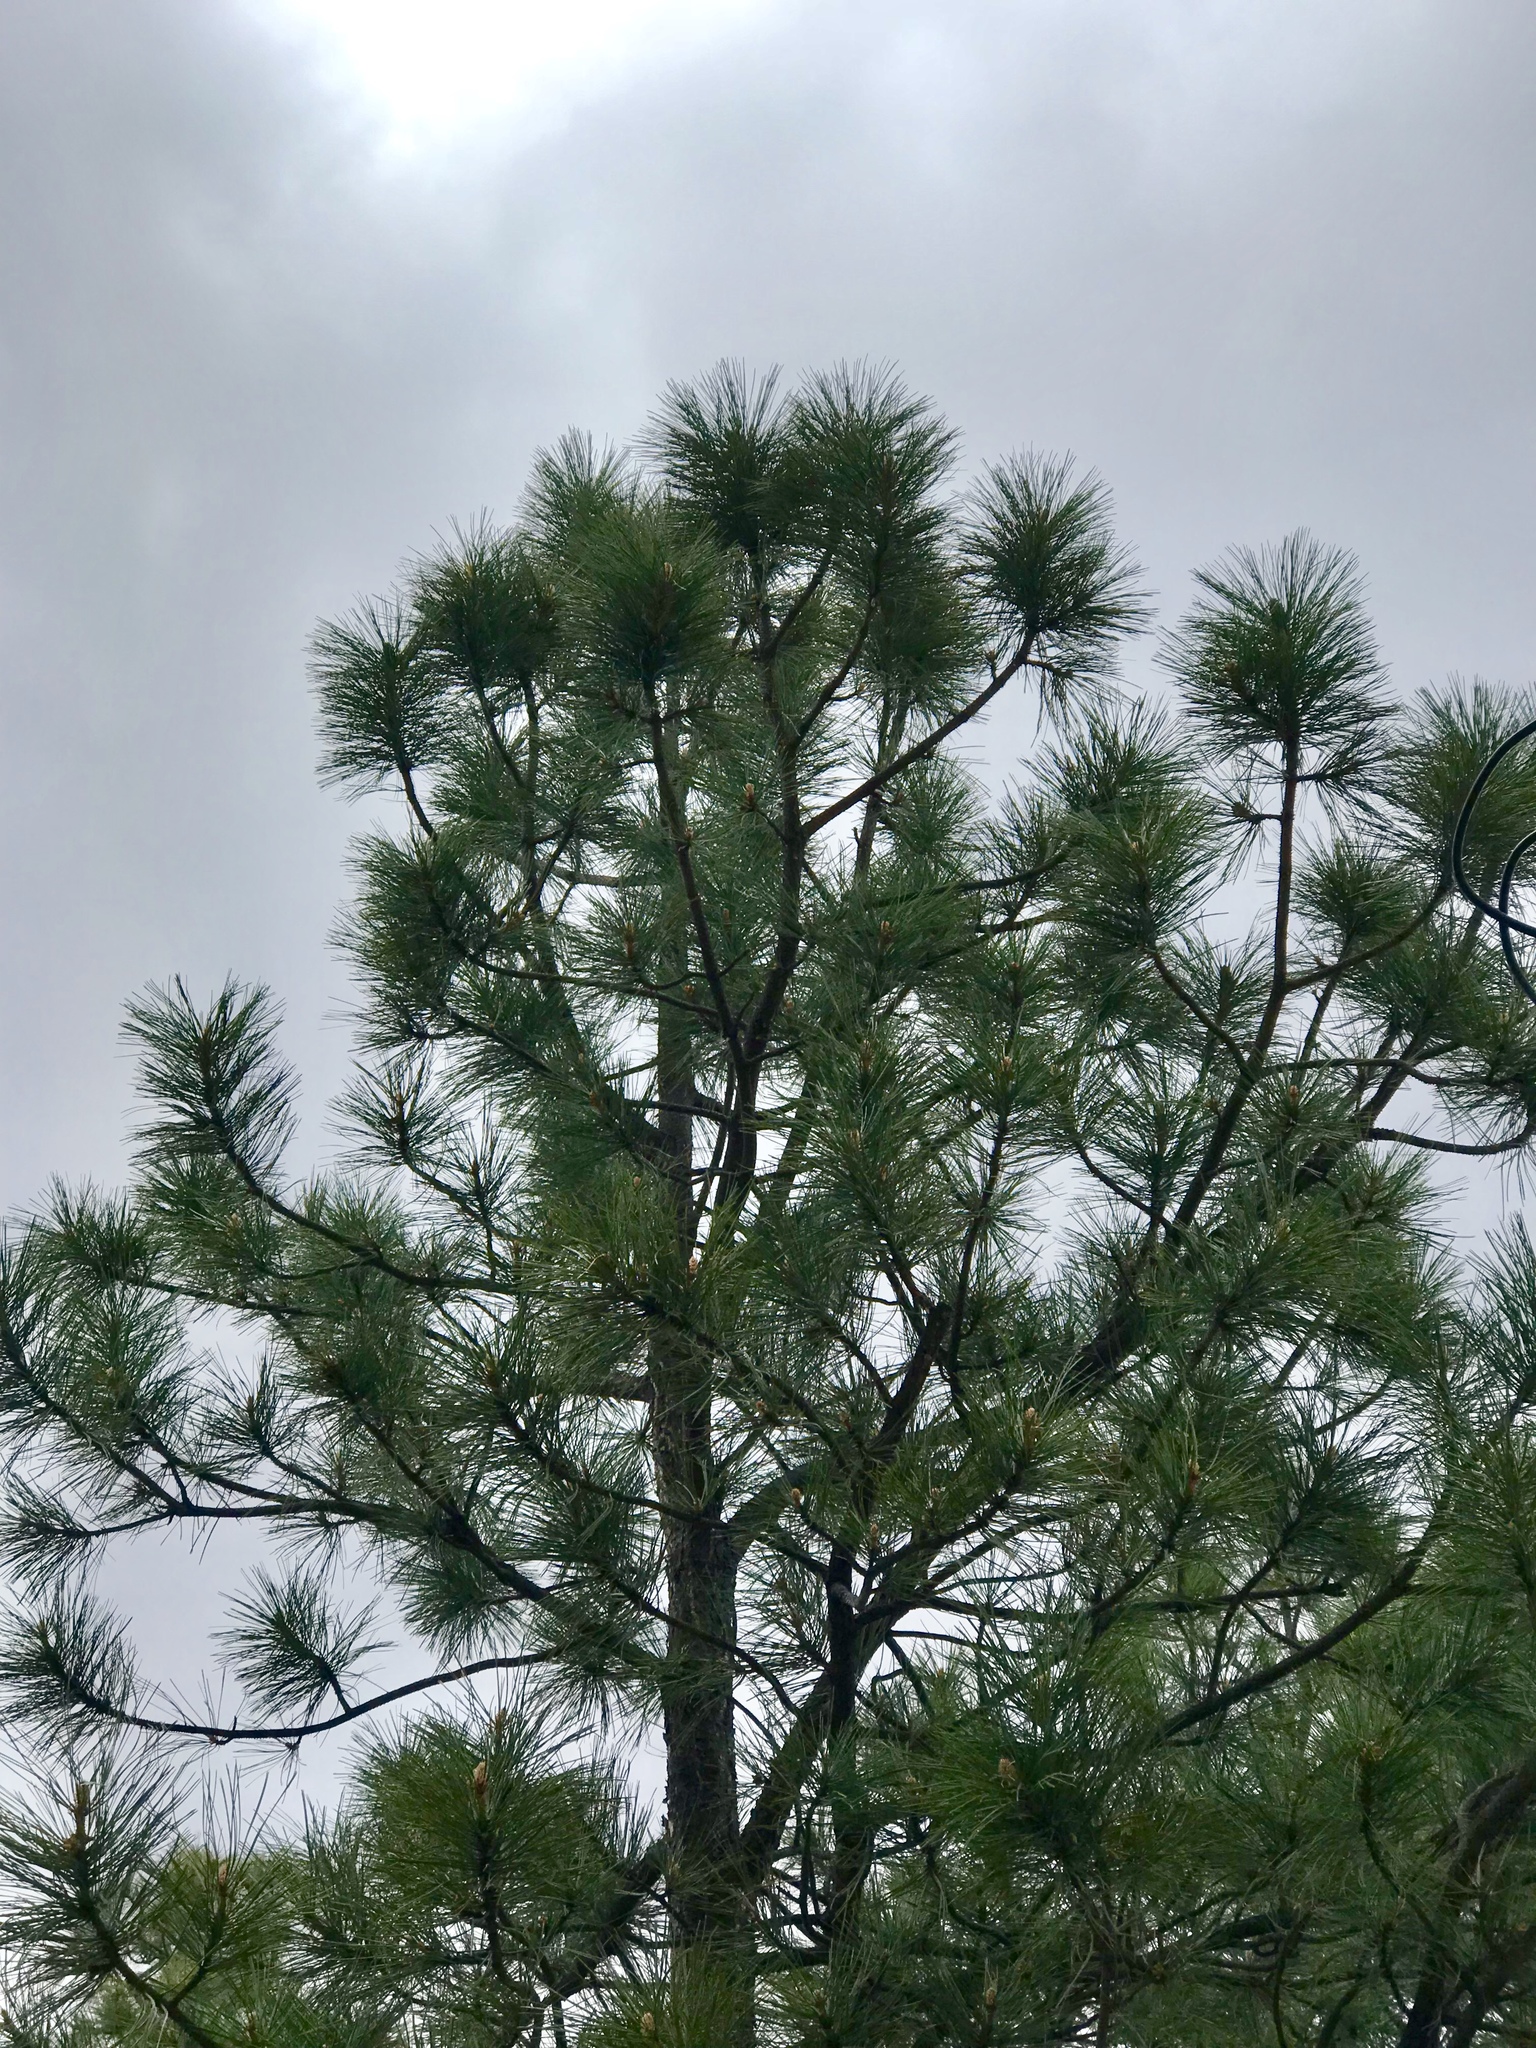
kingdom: Plantae
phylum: Tracheophyta
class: Pinopsida
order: Pinales
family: Pinaceae
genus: Pinus
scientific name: Pinus ponderosa
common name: Western yellow-pine
